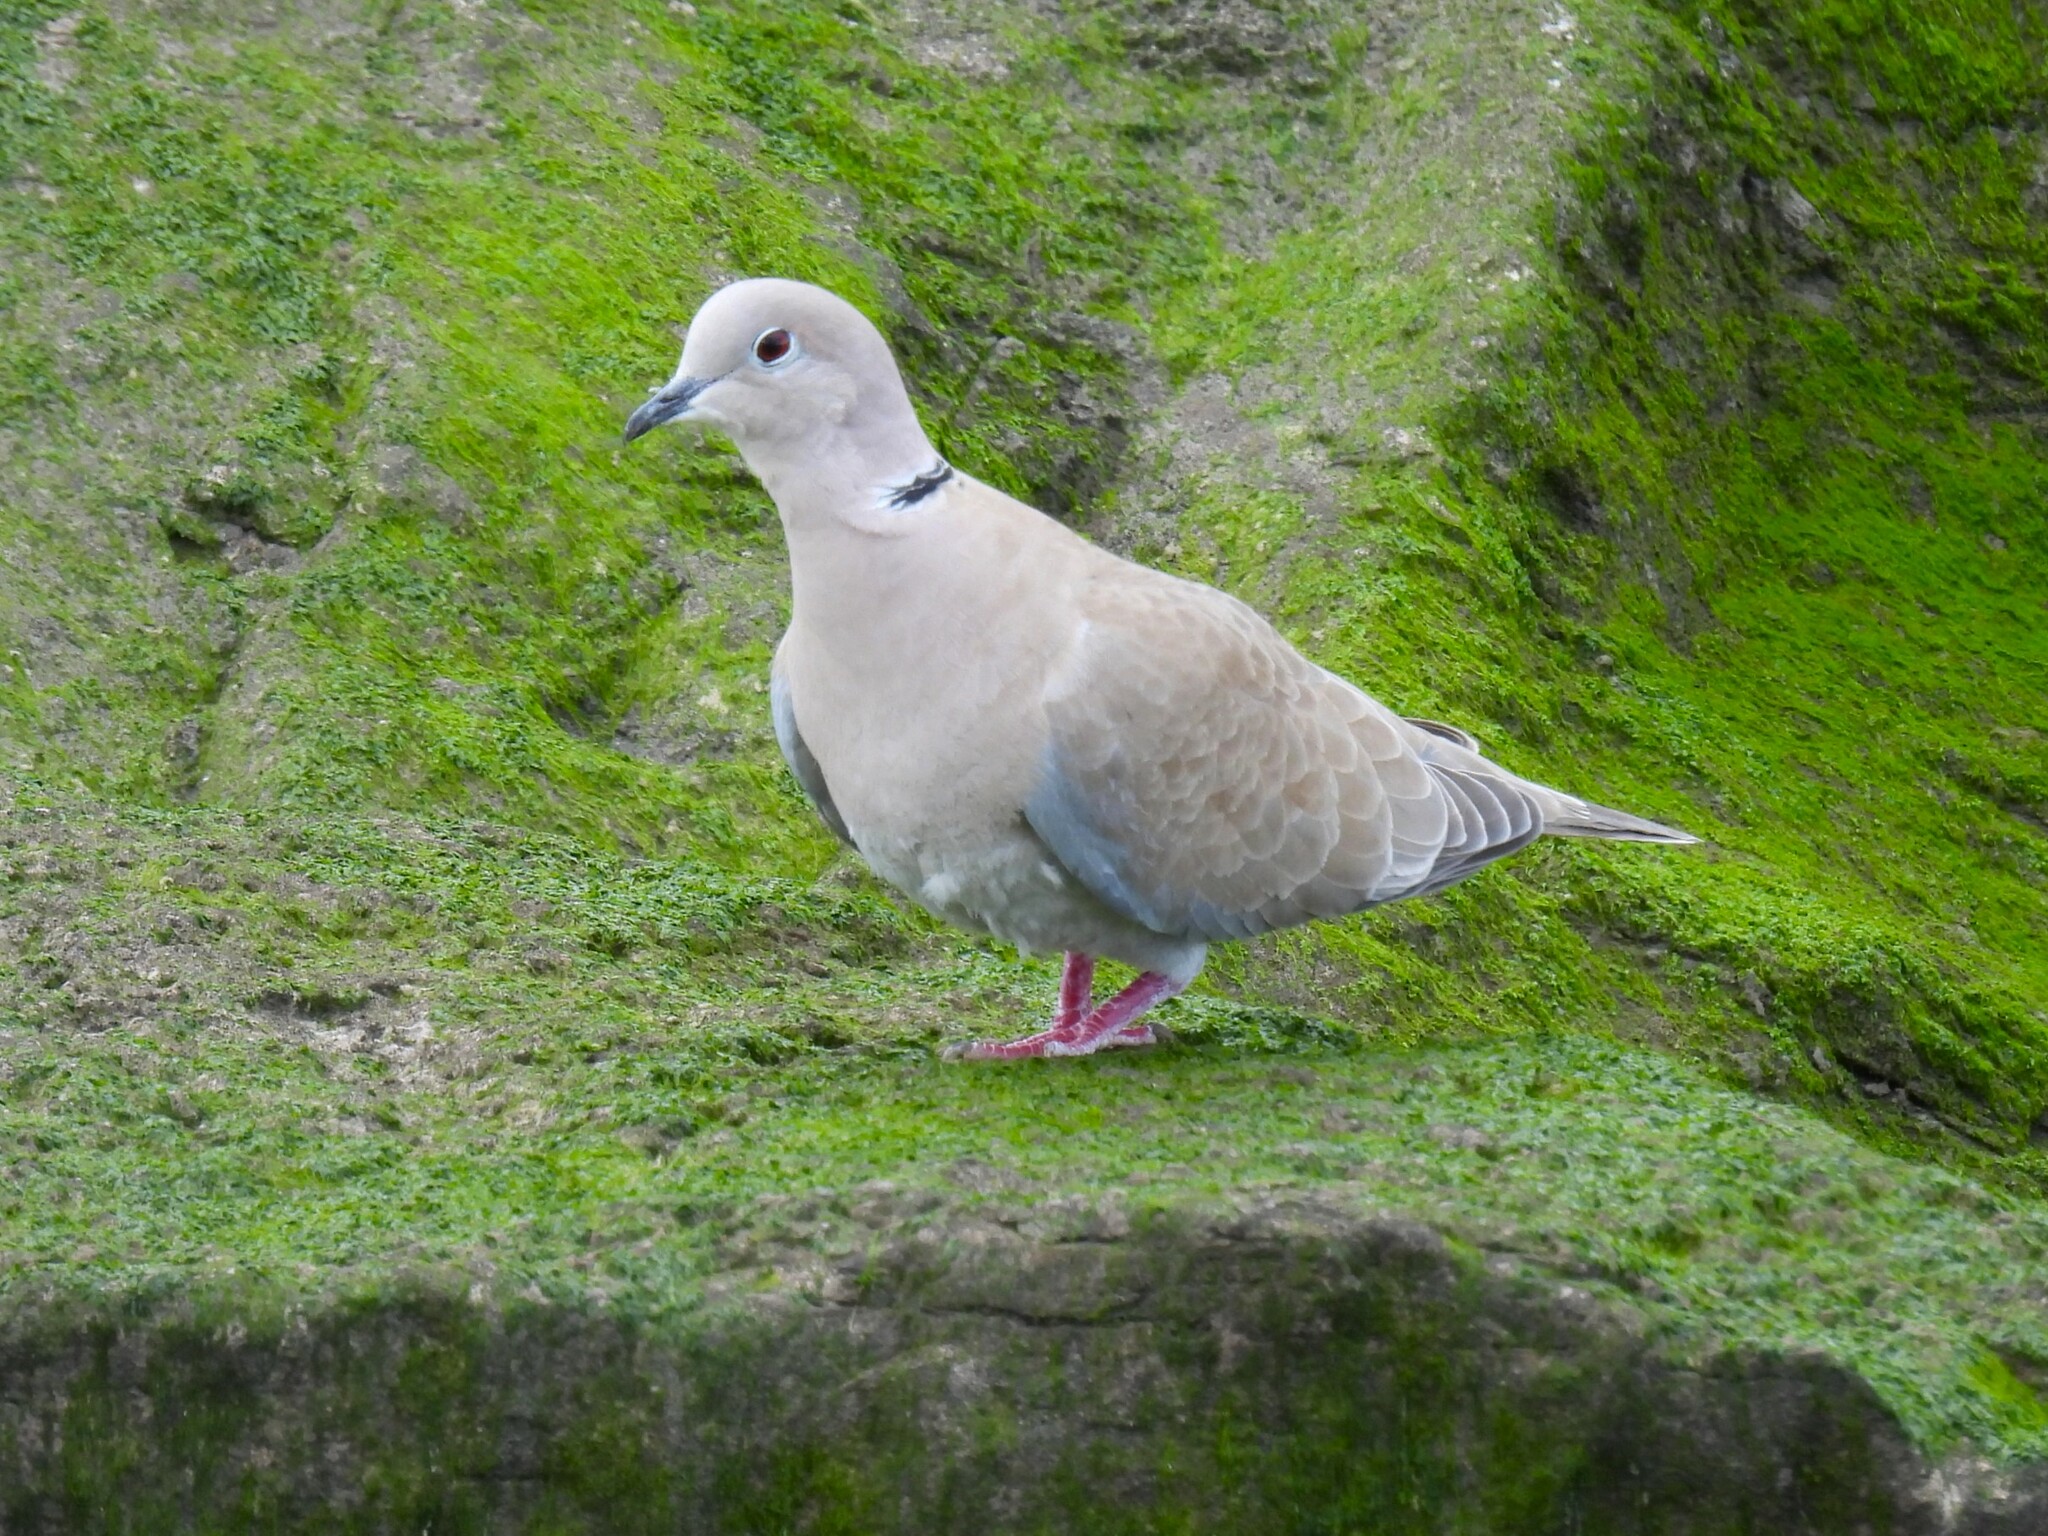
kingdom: Animalia
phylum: Chordata
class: Aves
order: Columbiformes
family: Columbidae
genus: Streptopelia
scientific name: Streptopelia decaocto
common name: Eurasian collared dove
